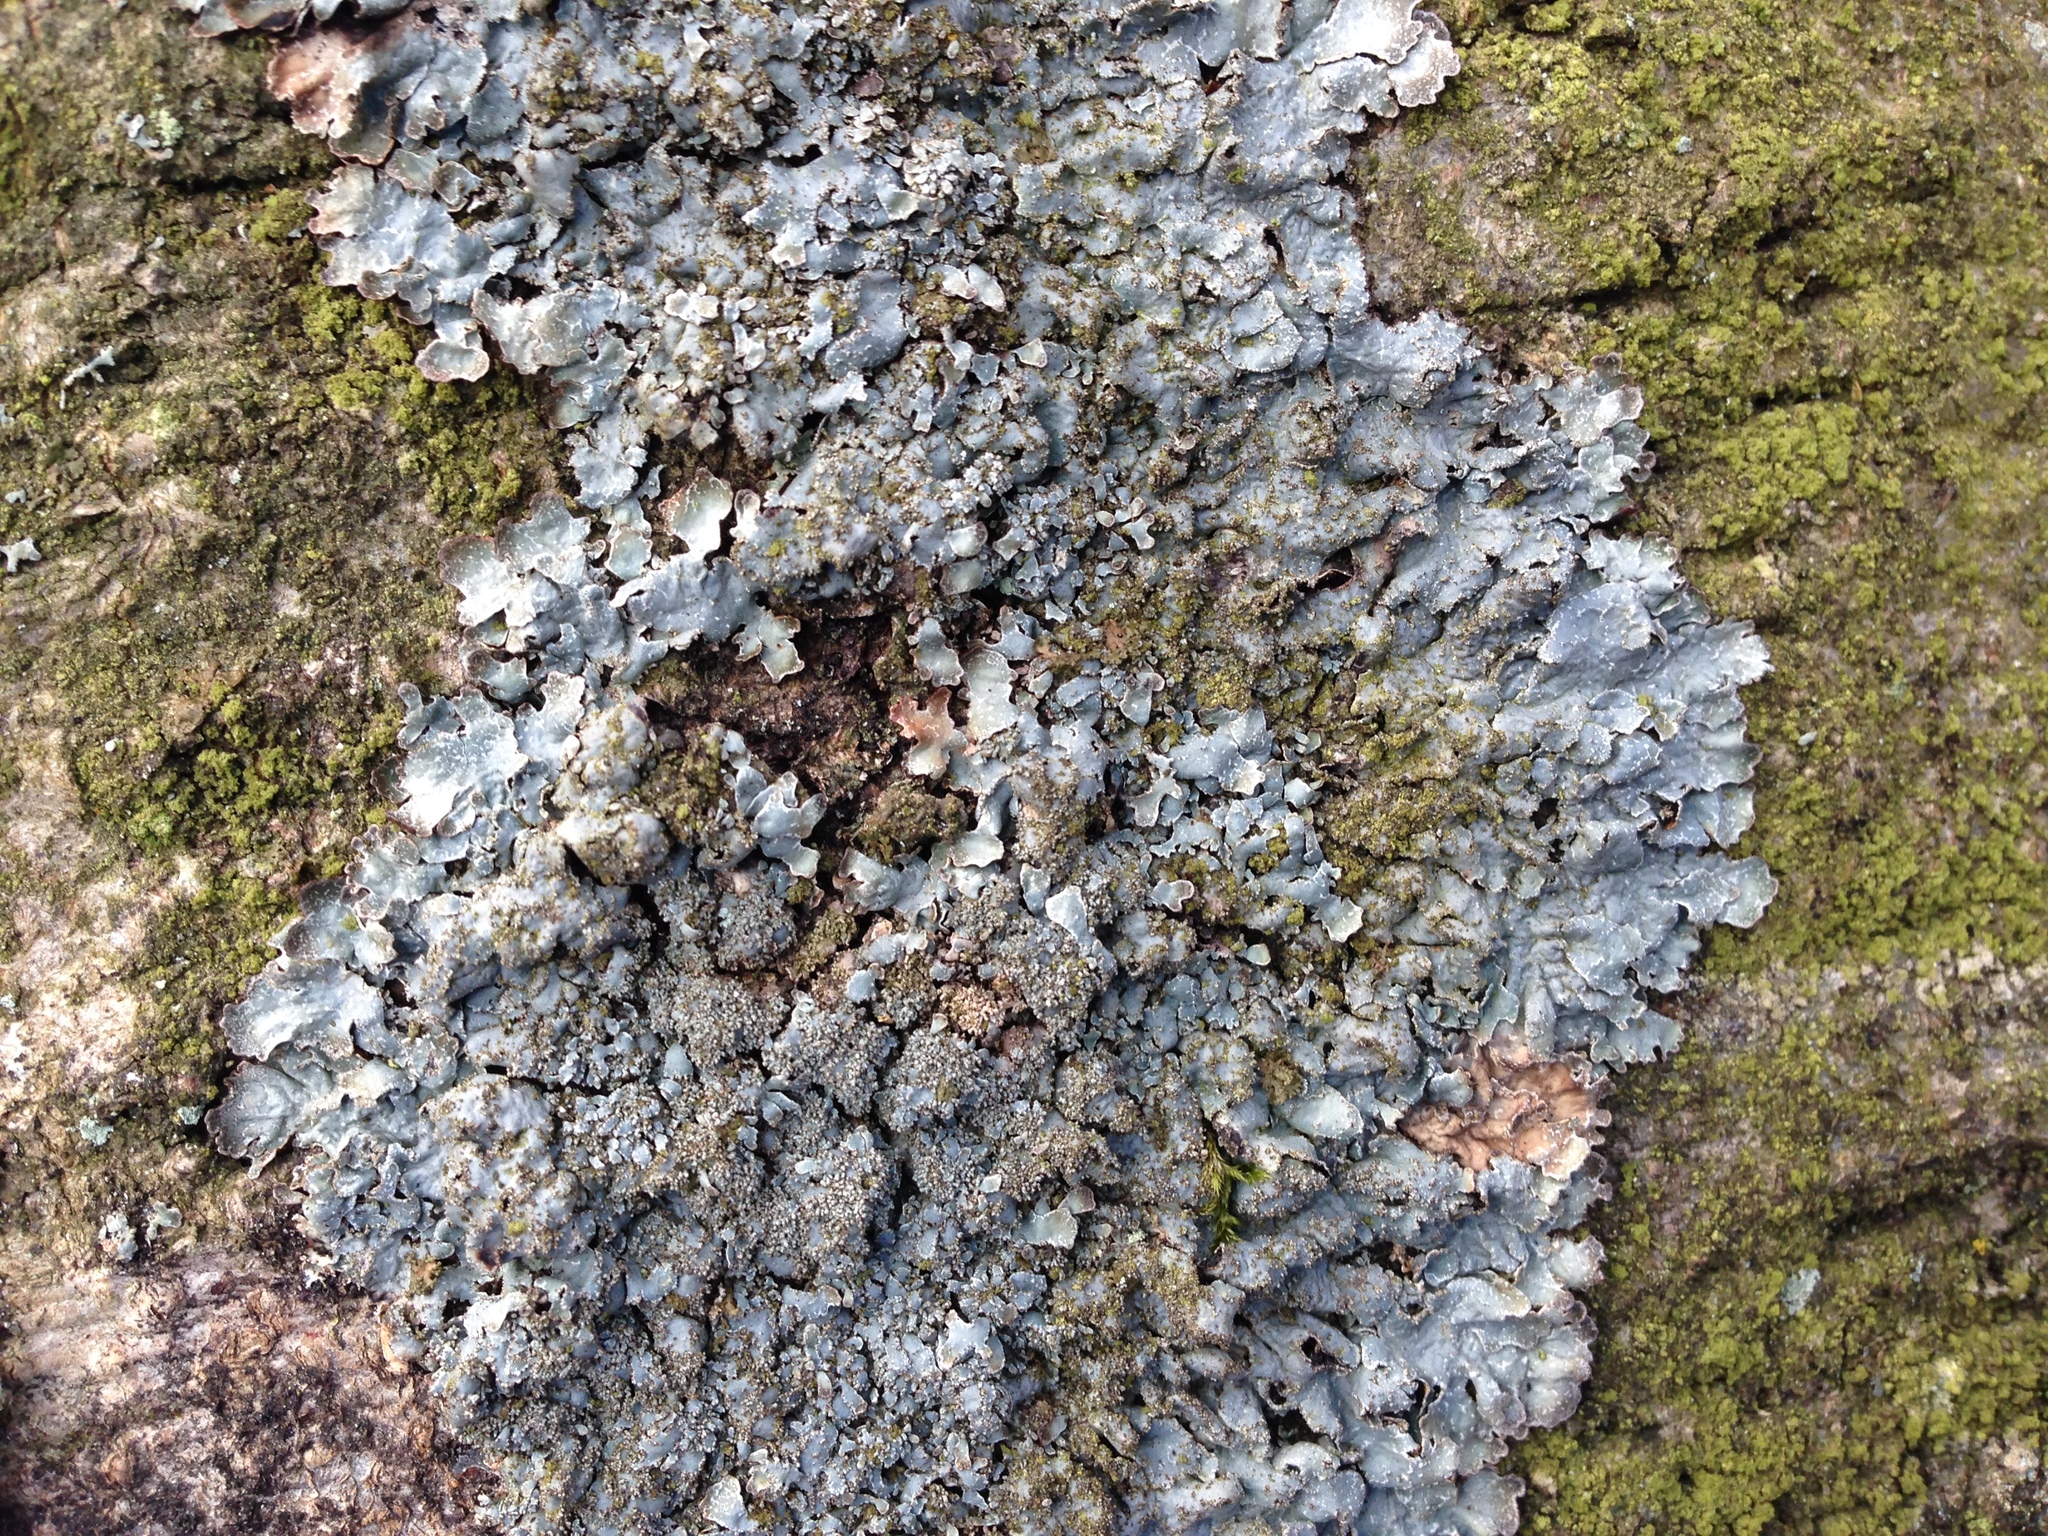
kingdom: Fungi
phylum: Ascomycota
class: Lecanoromycetes
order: Lecanorales
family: Parmeliaceae
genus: Parmelia
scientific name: Parmelia ernstiae
